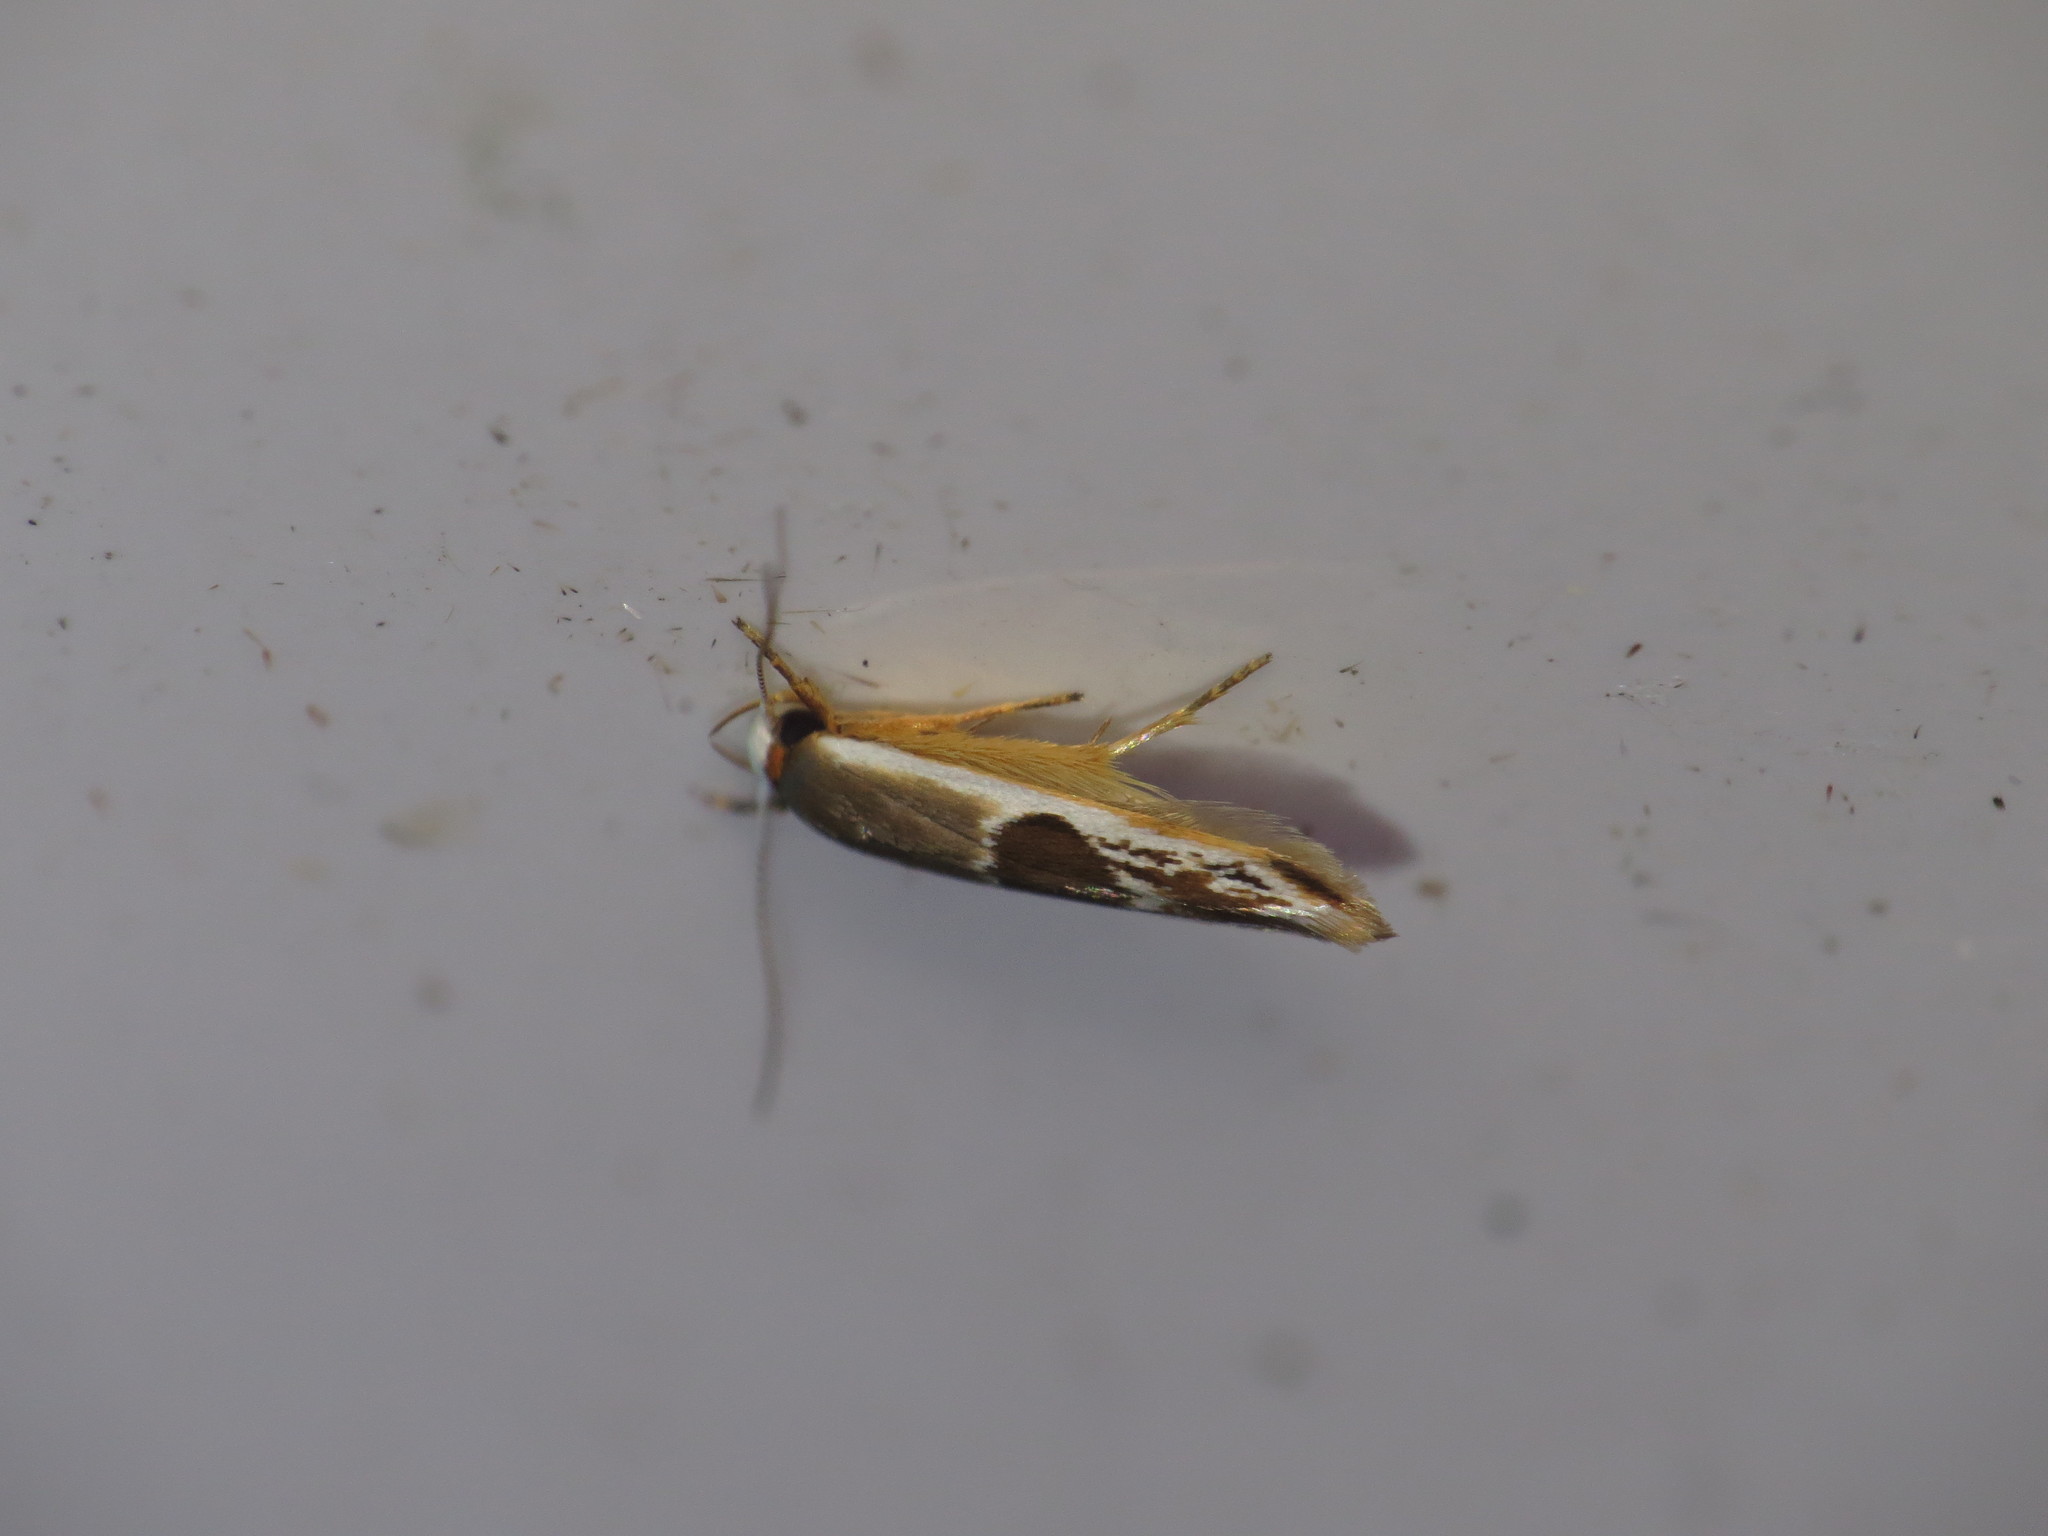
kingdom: Animalia
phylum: Arthropoda
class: Insecta
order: Lepidoptera
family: Stathmopodidae
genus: Stathmopoda
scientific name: Stathmopoda megathyma
